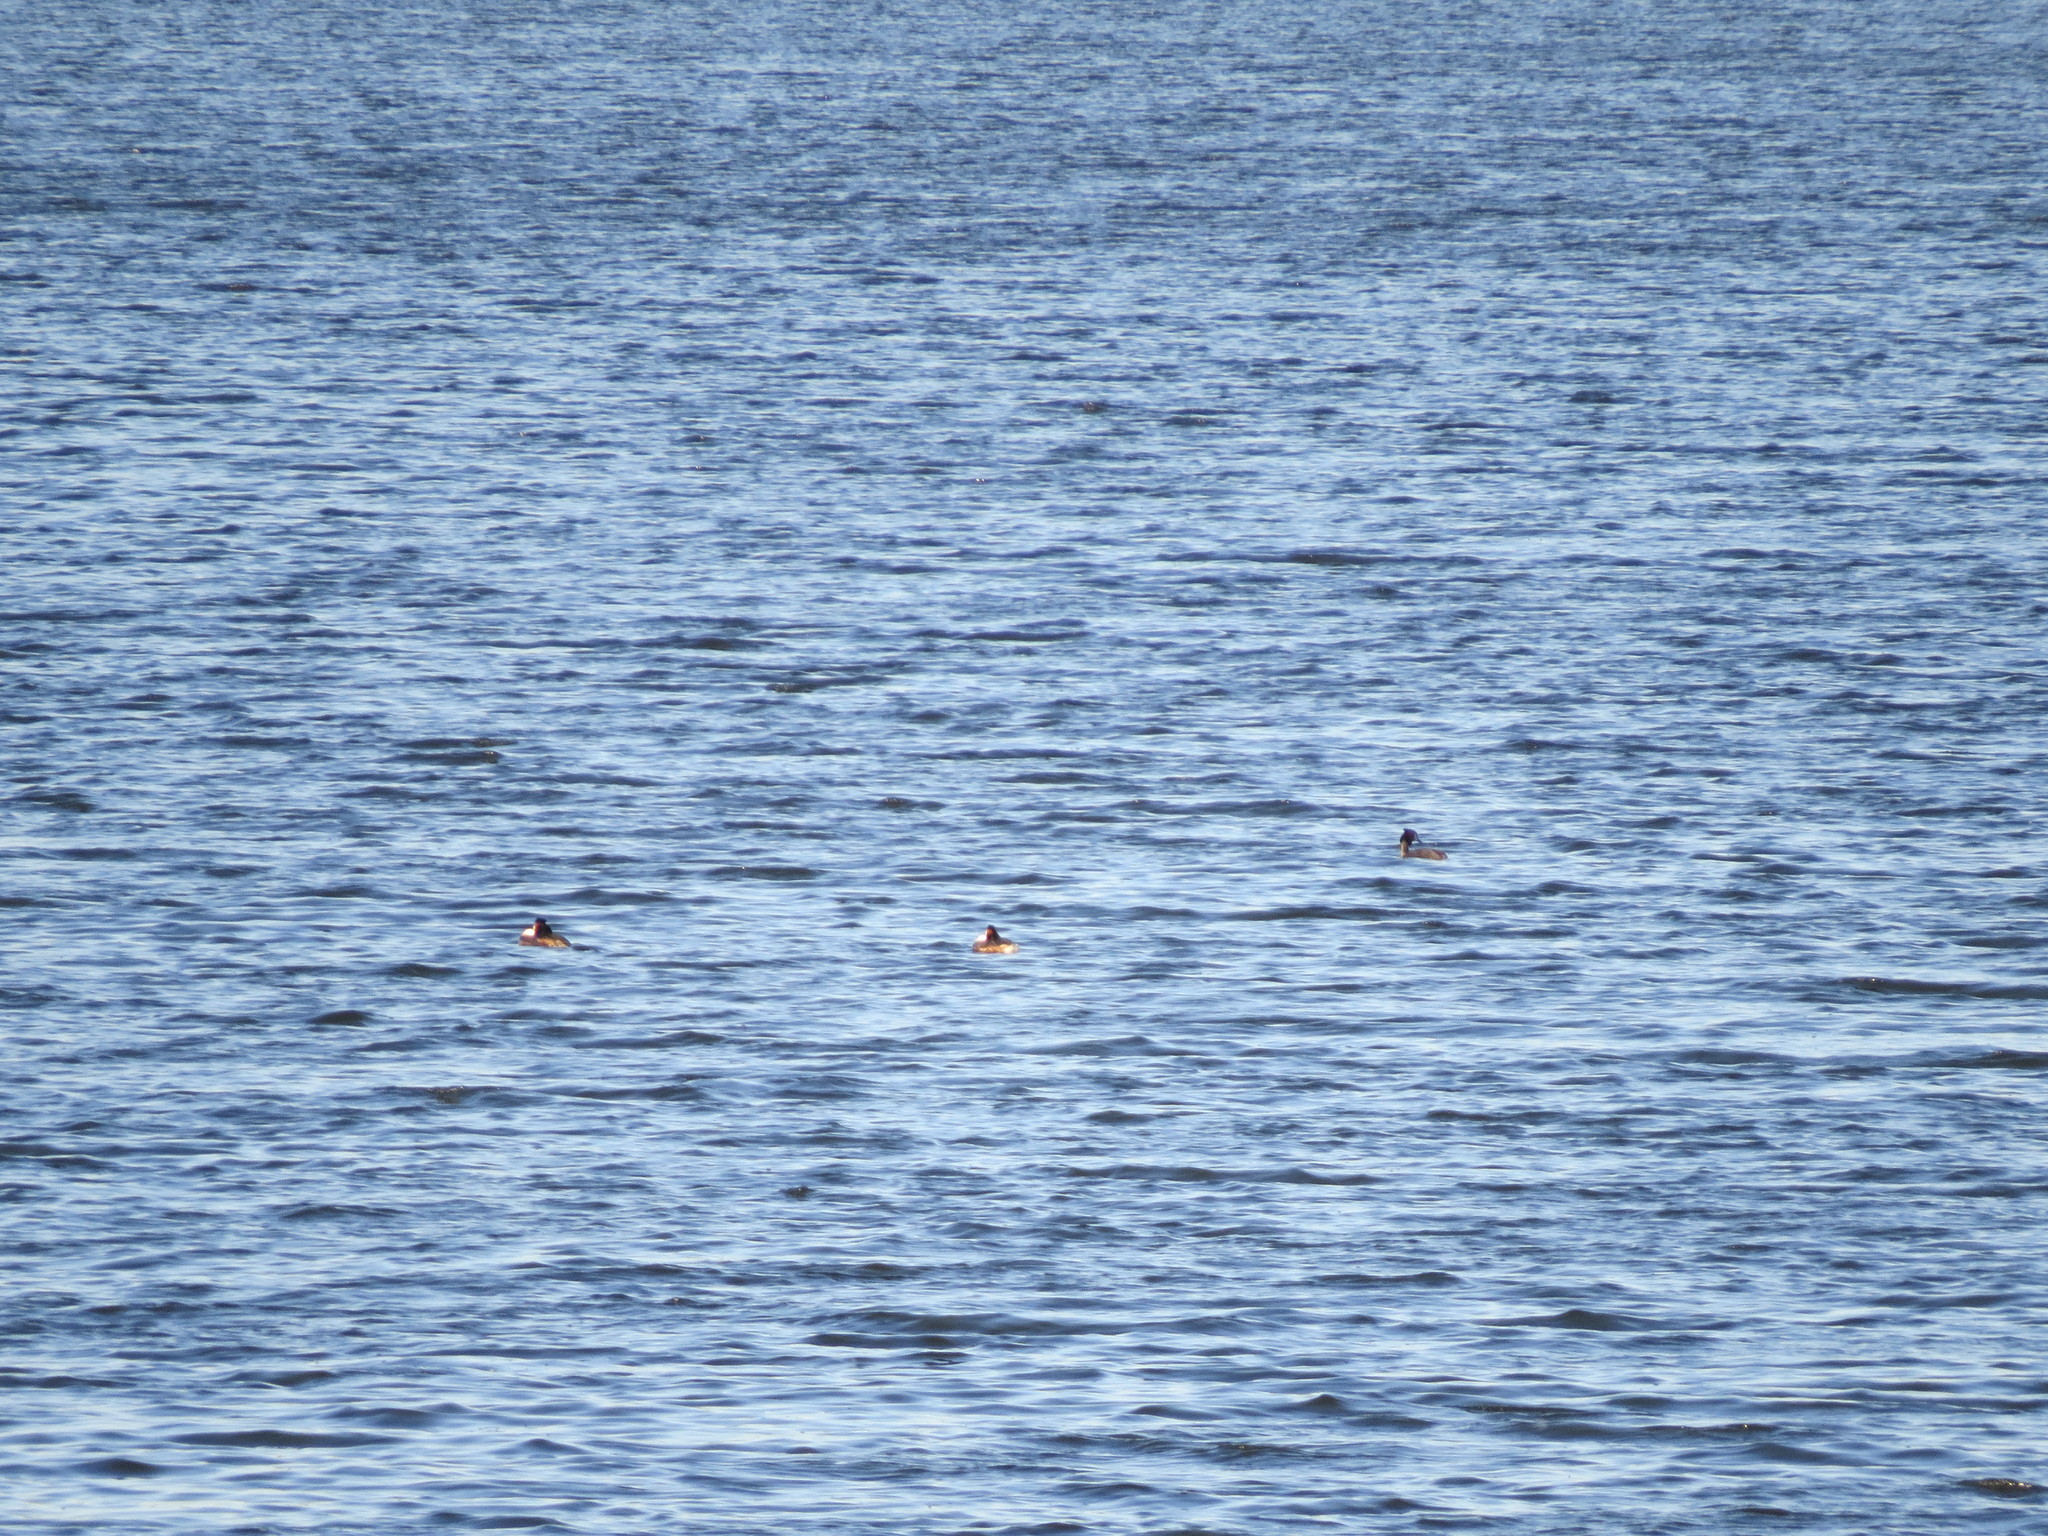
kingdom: Animalia
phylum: Chordata
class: Aves
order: Podicipediformes
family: Podicipedidae
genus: Podiceps
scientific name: Podiceps cristatus
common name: Great crested grebe
